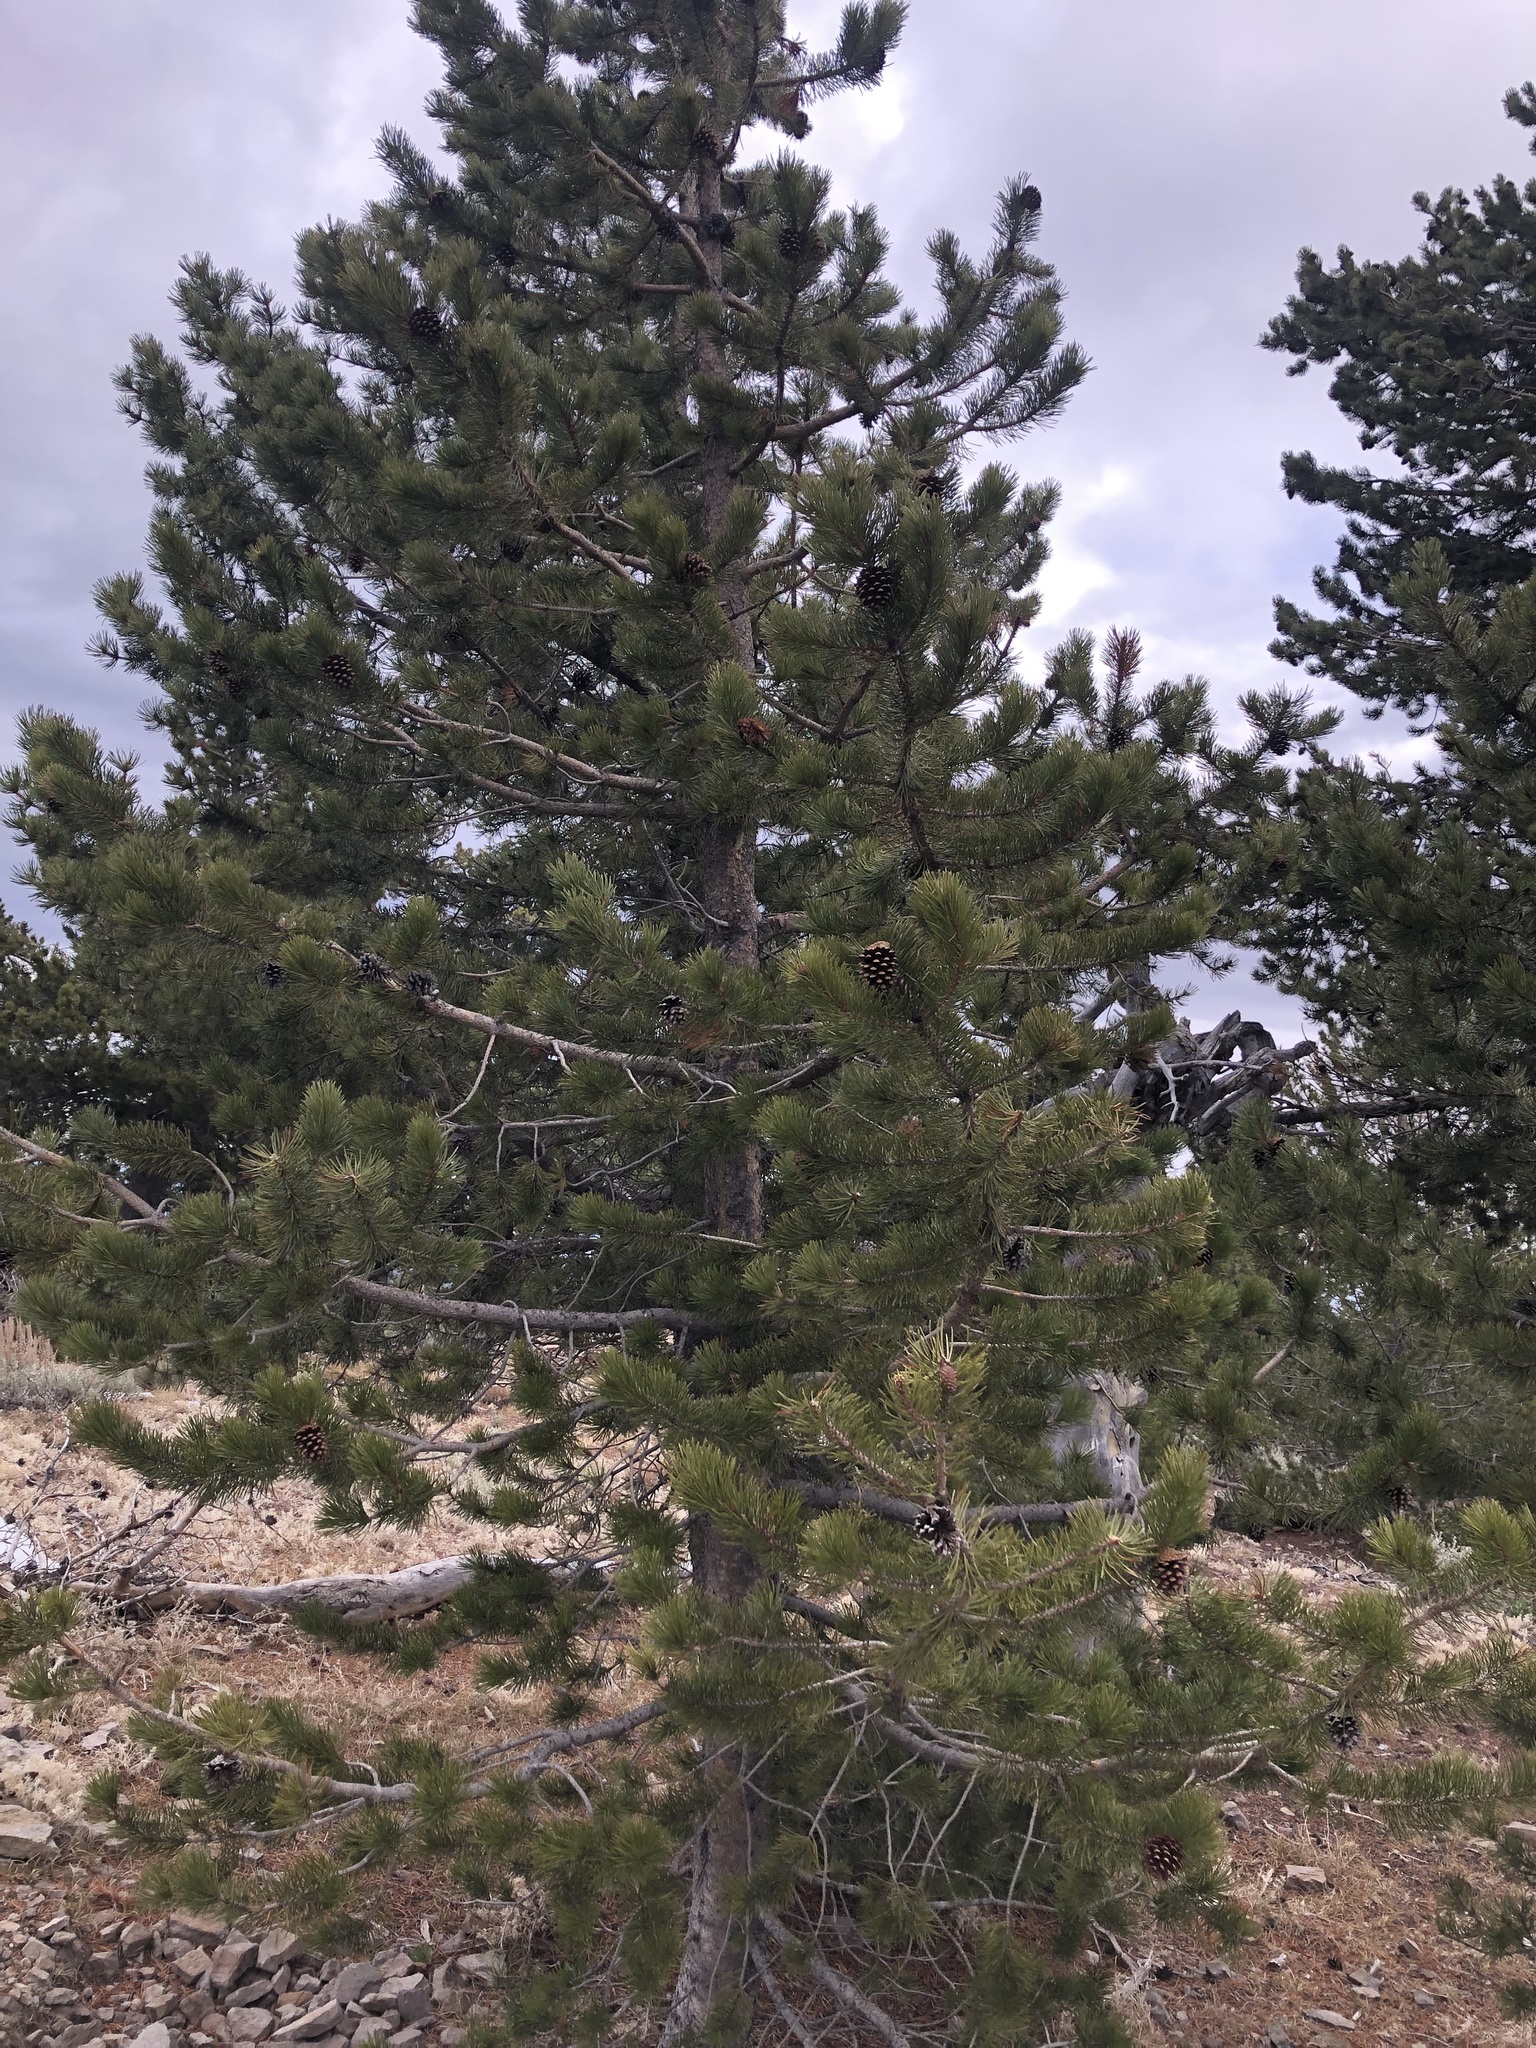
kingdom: Plantae
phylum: Tracheophyta
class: Pinopsida
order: Pinales
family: Pinaceae
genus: Pinus
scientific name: Pinus contorta
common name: Lodgepole pine
